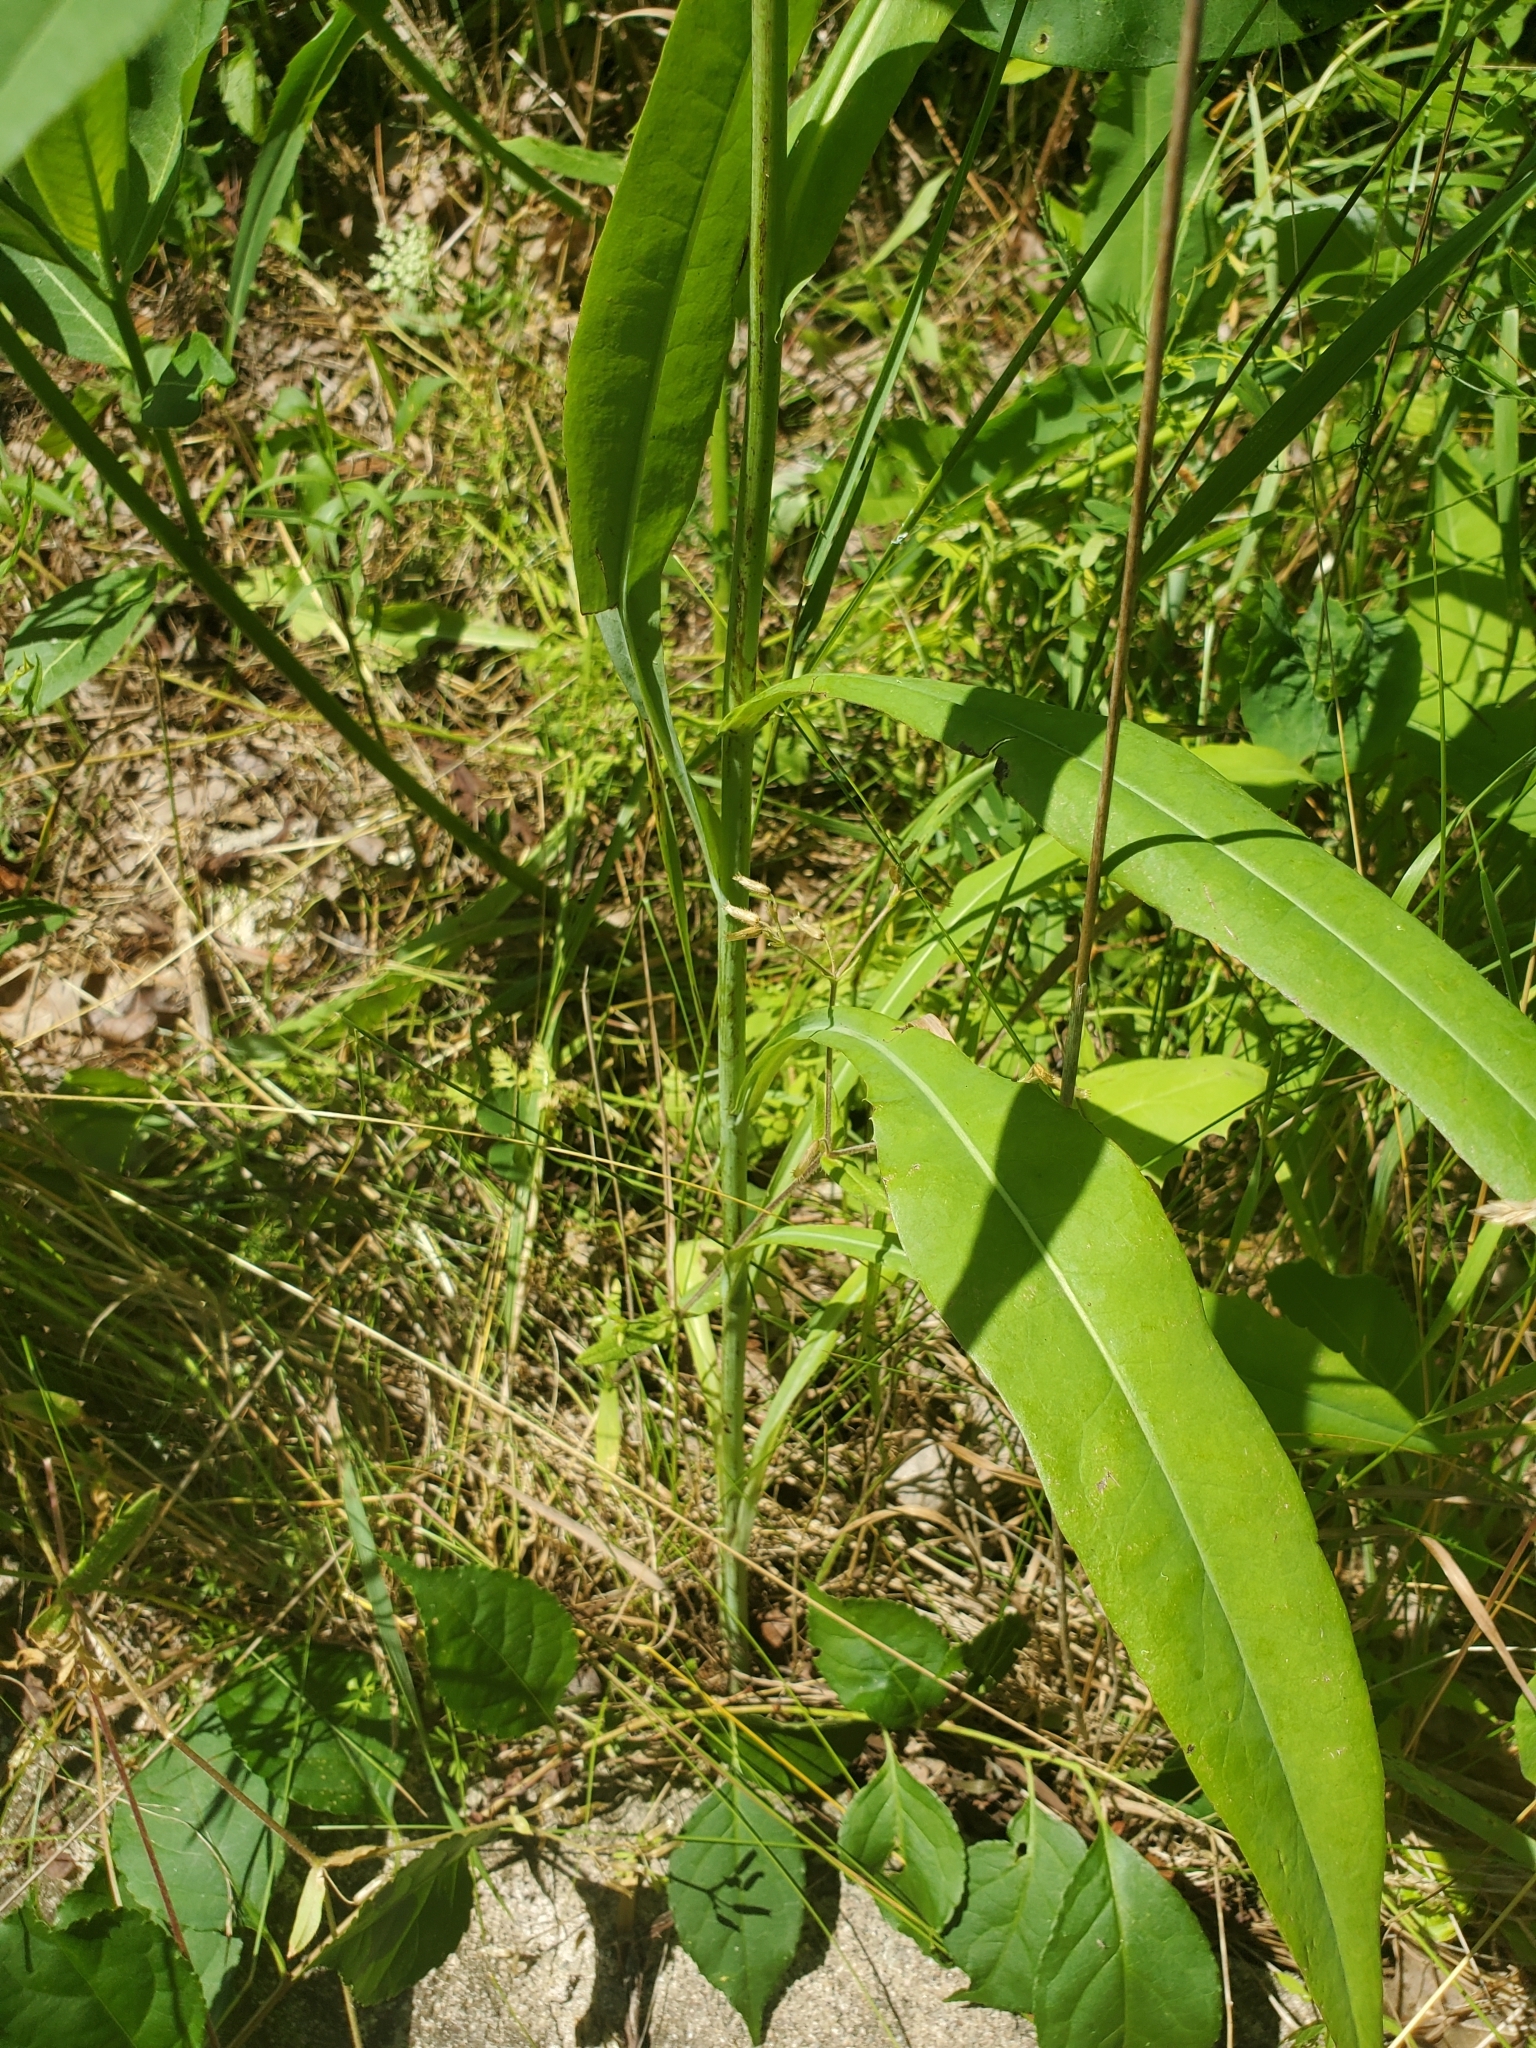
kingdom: Plantae
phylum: Tracheophyta
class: Magnoliopsida
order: Asterales
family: Asteraceae
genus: Lactuca
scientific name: Lactuca canadensis
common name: Canada lettuce
